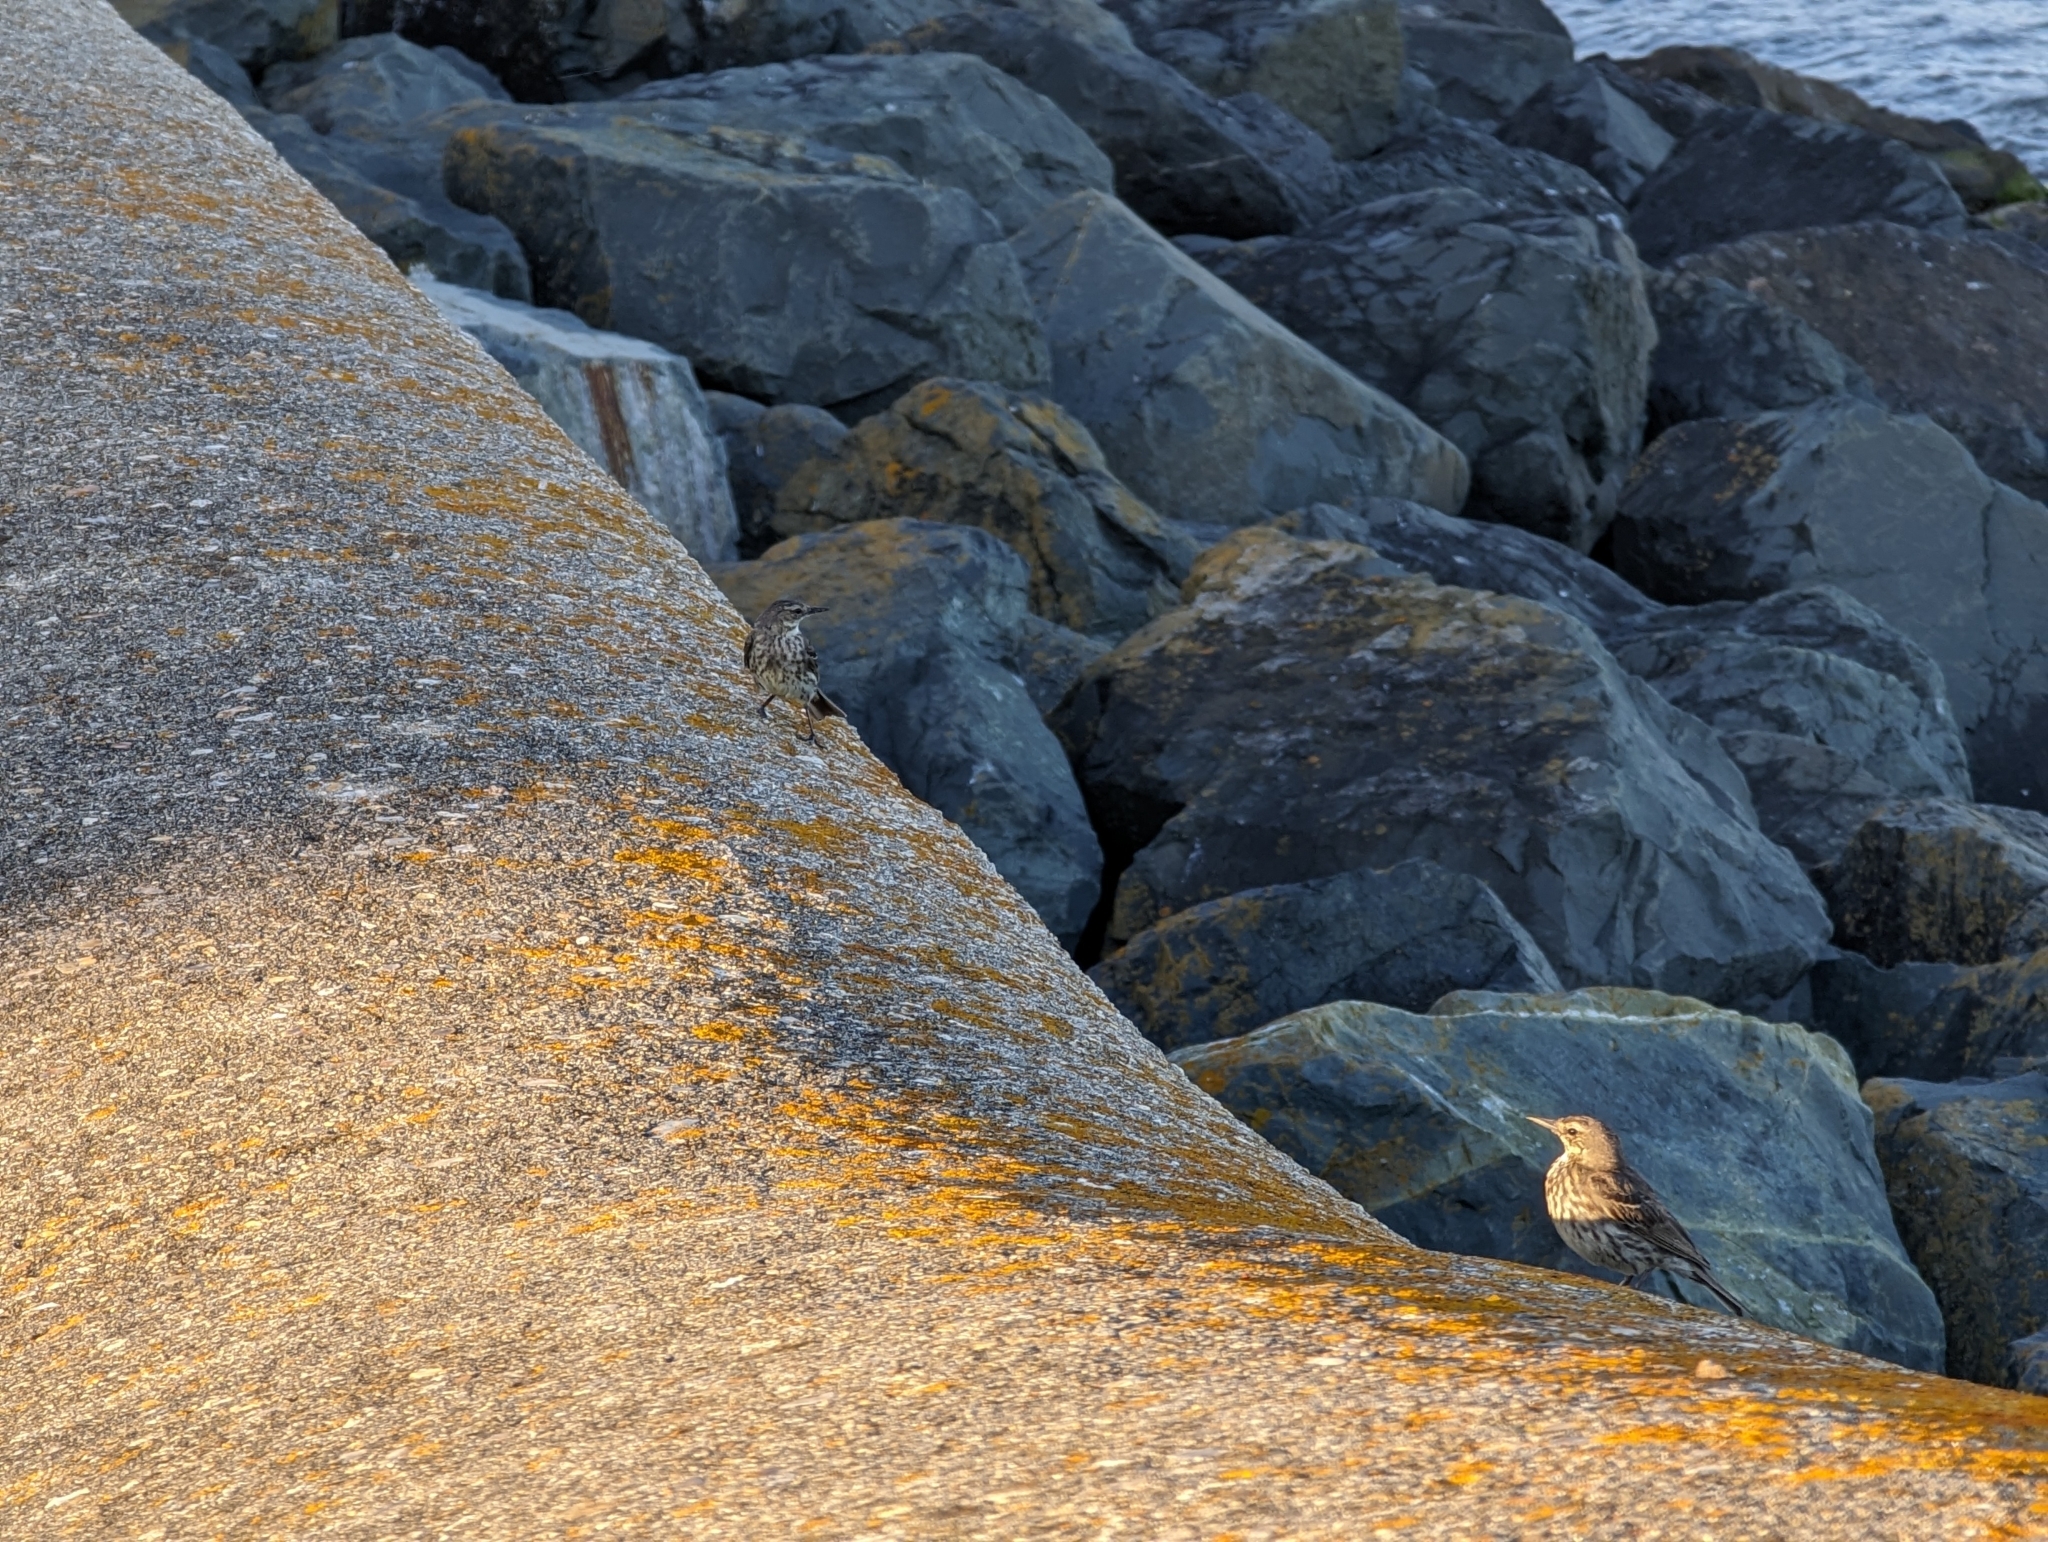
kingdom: Animalia
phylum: Chordata
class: Aves
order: Passeriformes
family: Motacillidae
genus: Anthus
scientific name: Anthus petrosus
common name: Eurasian rock pipit
